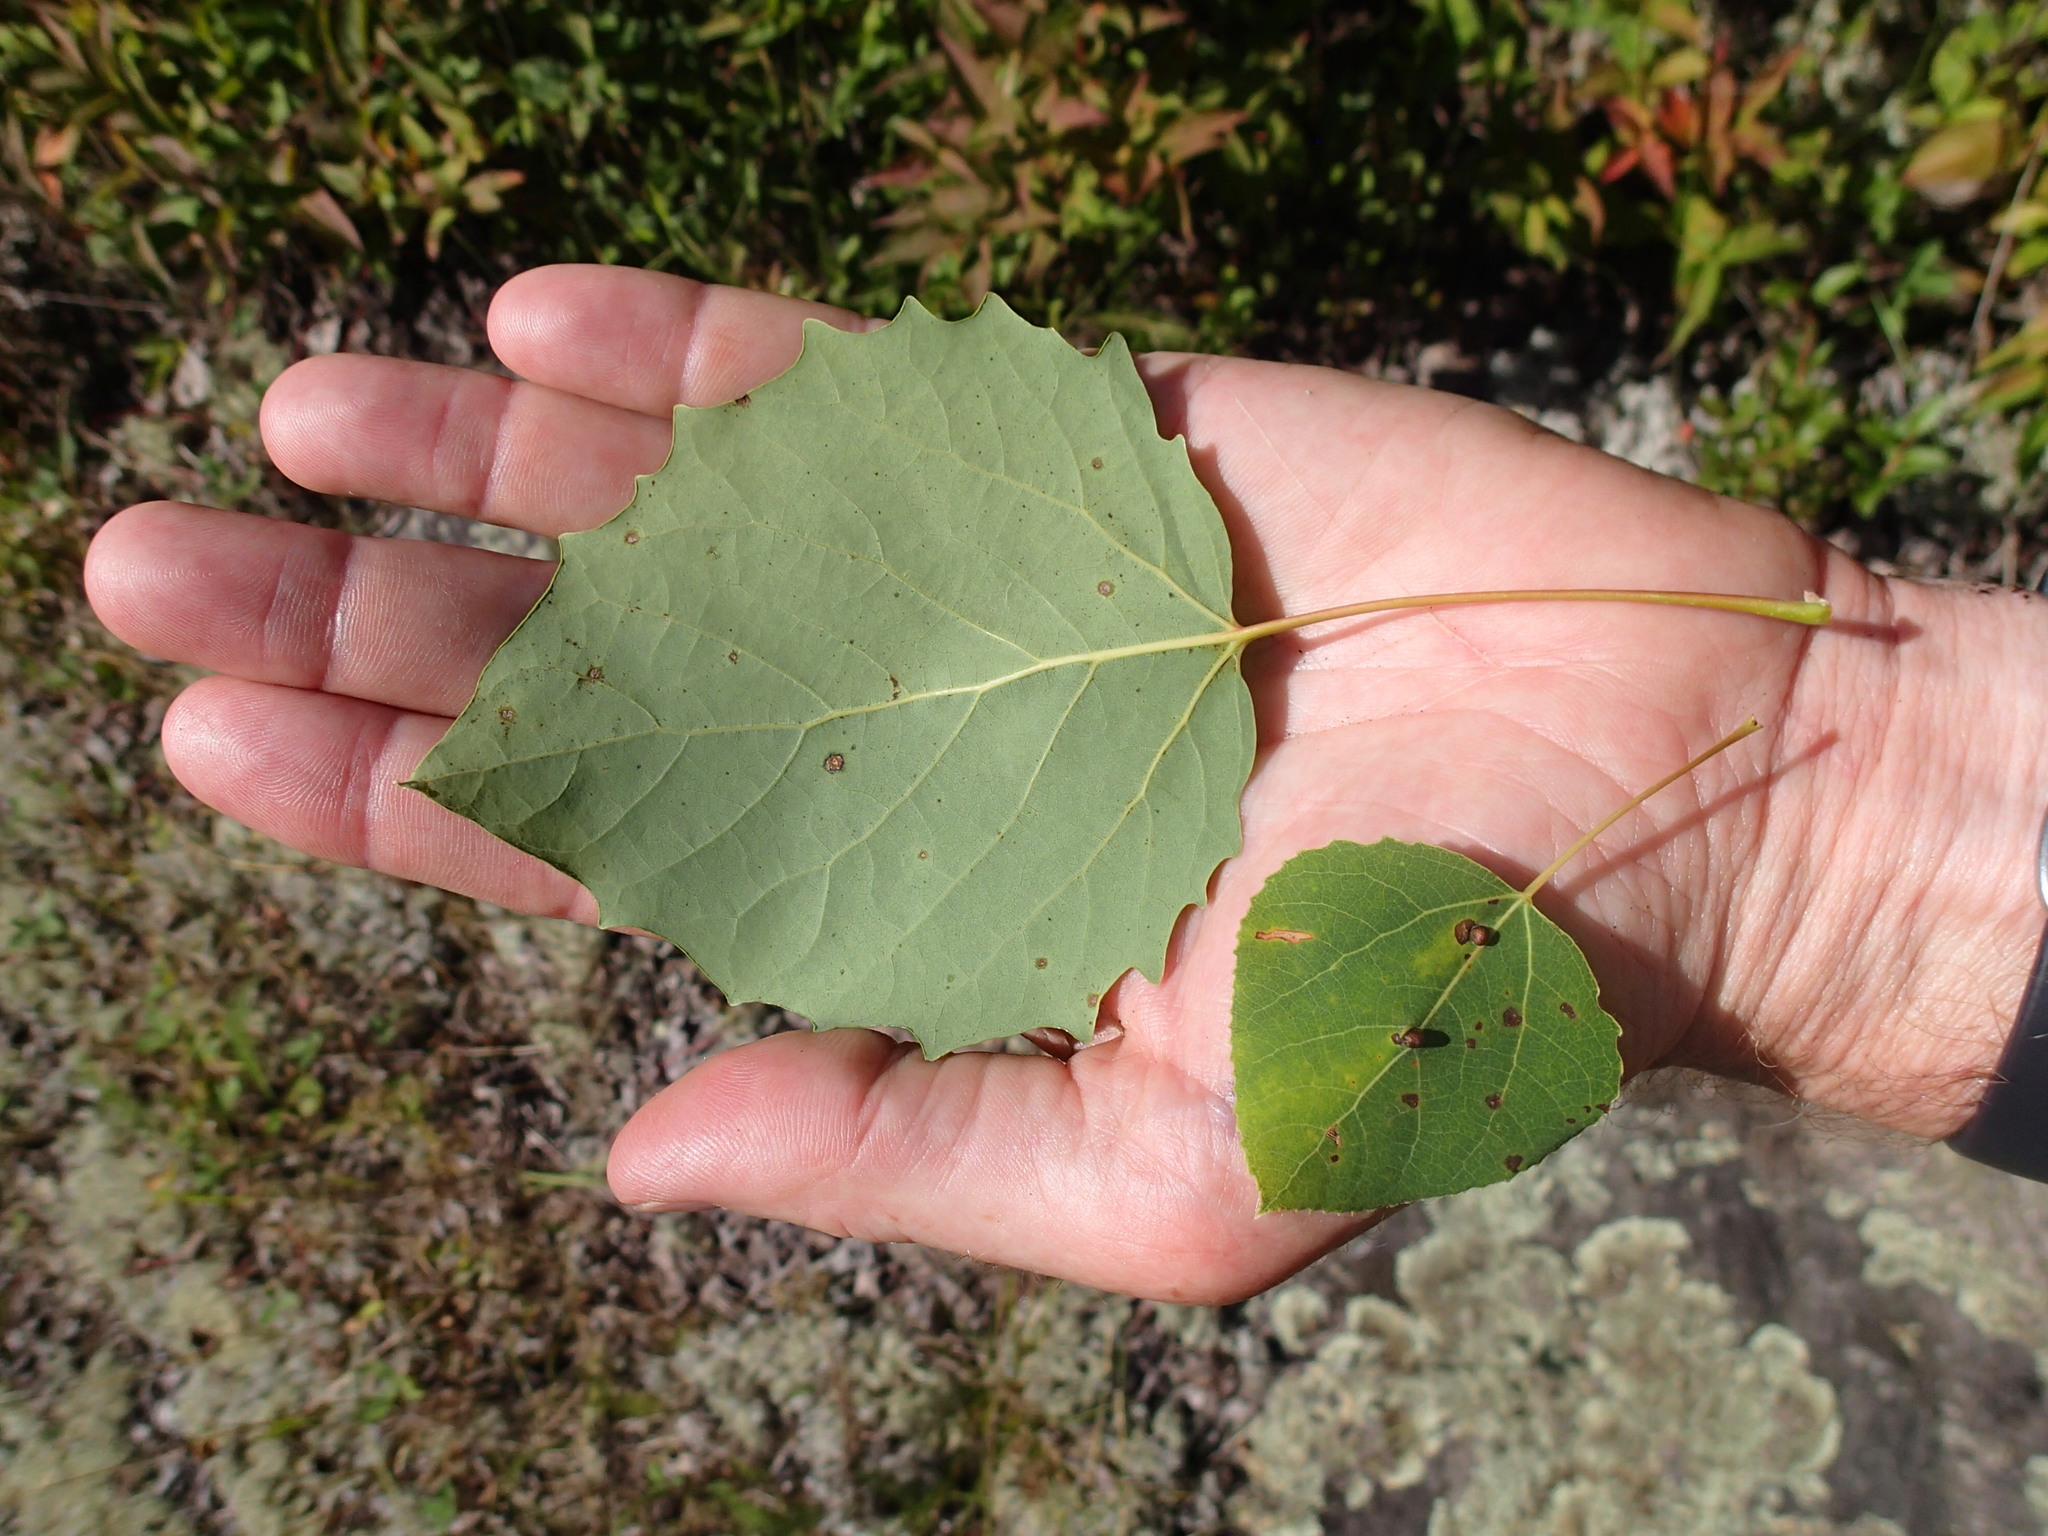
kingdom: Plantae
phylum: Tracheophyta
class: Magnoliopsida
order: Malpighiales
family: Salicaceae
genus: Populus
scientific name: Populus grandidentata
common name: Bigtooth aspen
